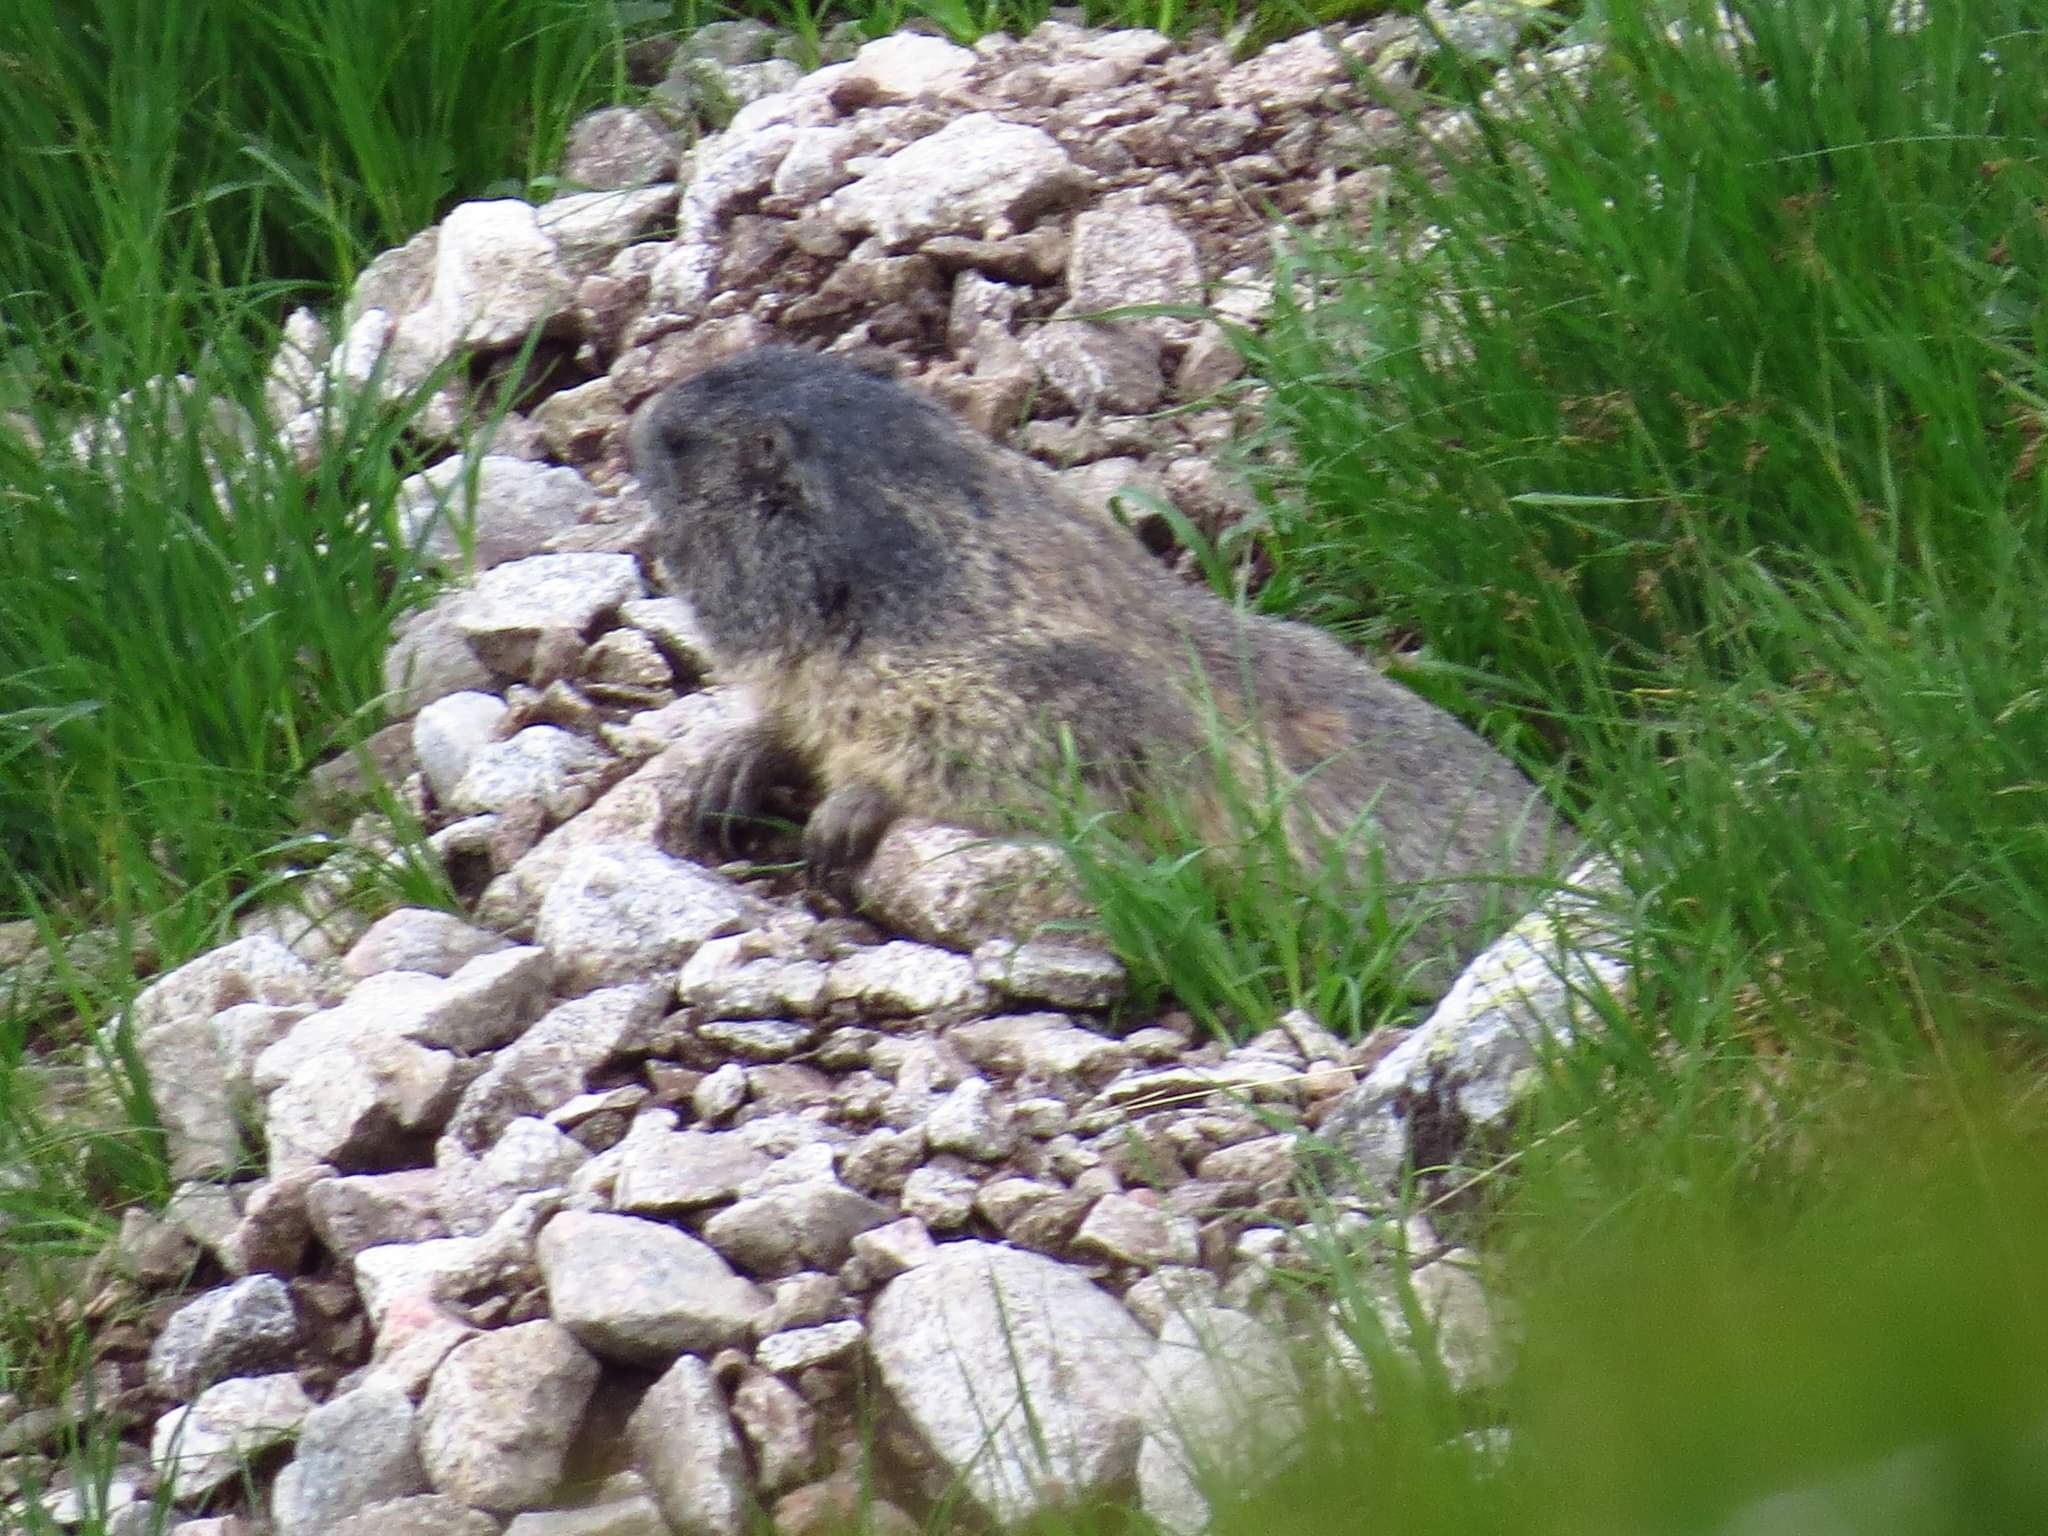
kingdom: Animalia
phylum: Chordata
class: Mammalia
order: Rodentia
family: Sciuridae
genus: Marmota
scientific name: Marmota marmota
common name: Alpine marmot
